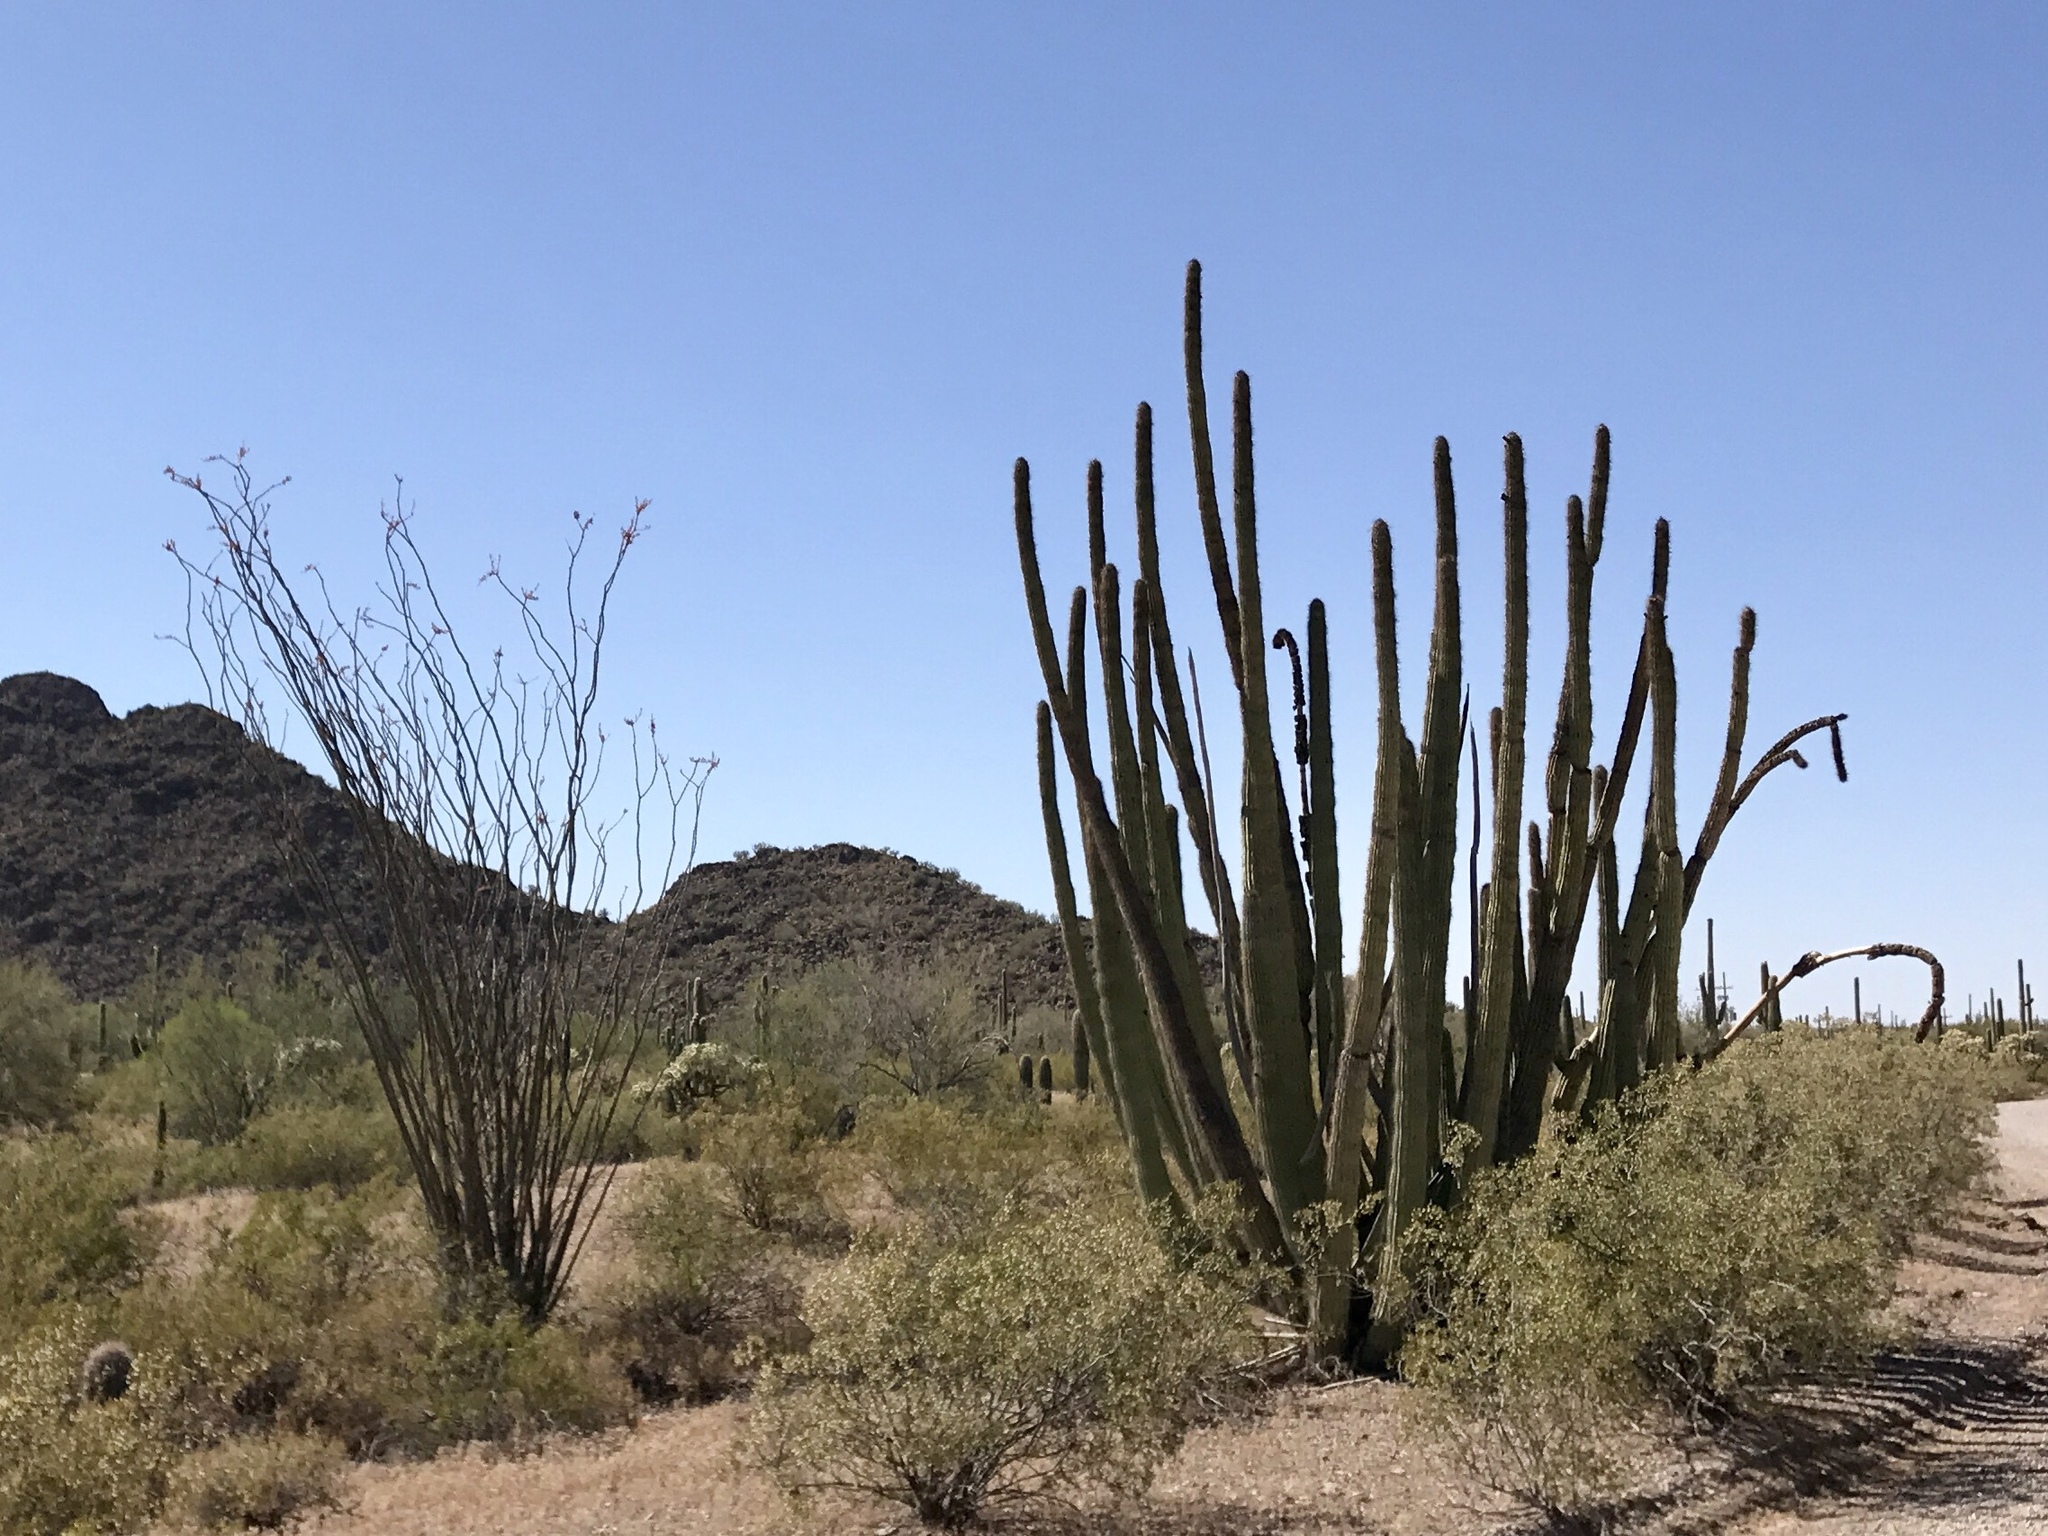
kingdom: Plantae
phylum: Tracheophyta
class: Magnoliopsida
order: Caryophyllales
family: Cactaceae
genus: Stenocereus
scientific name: Stenocereus thurberi
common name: Organ pipe cactus
